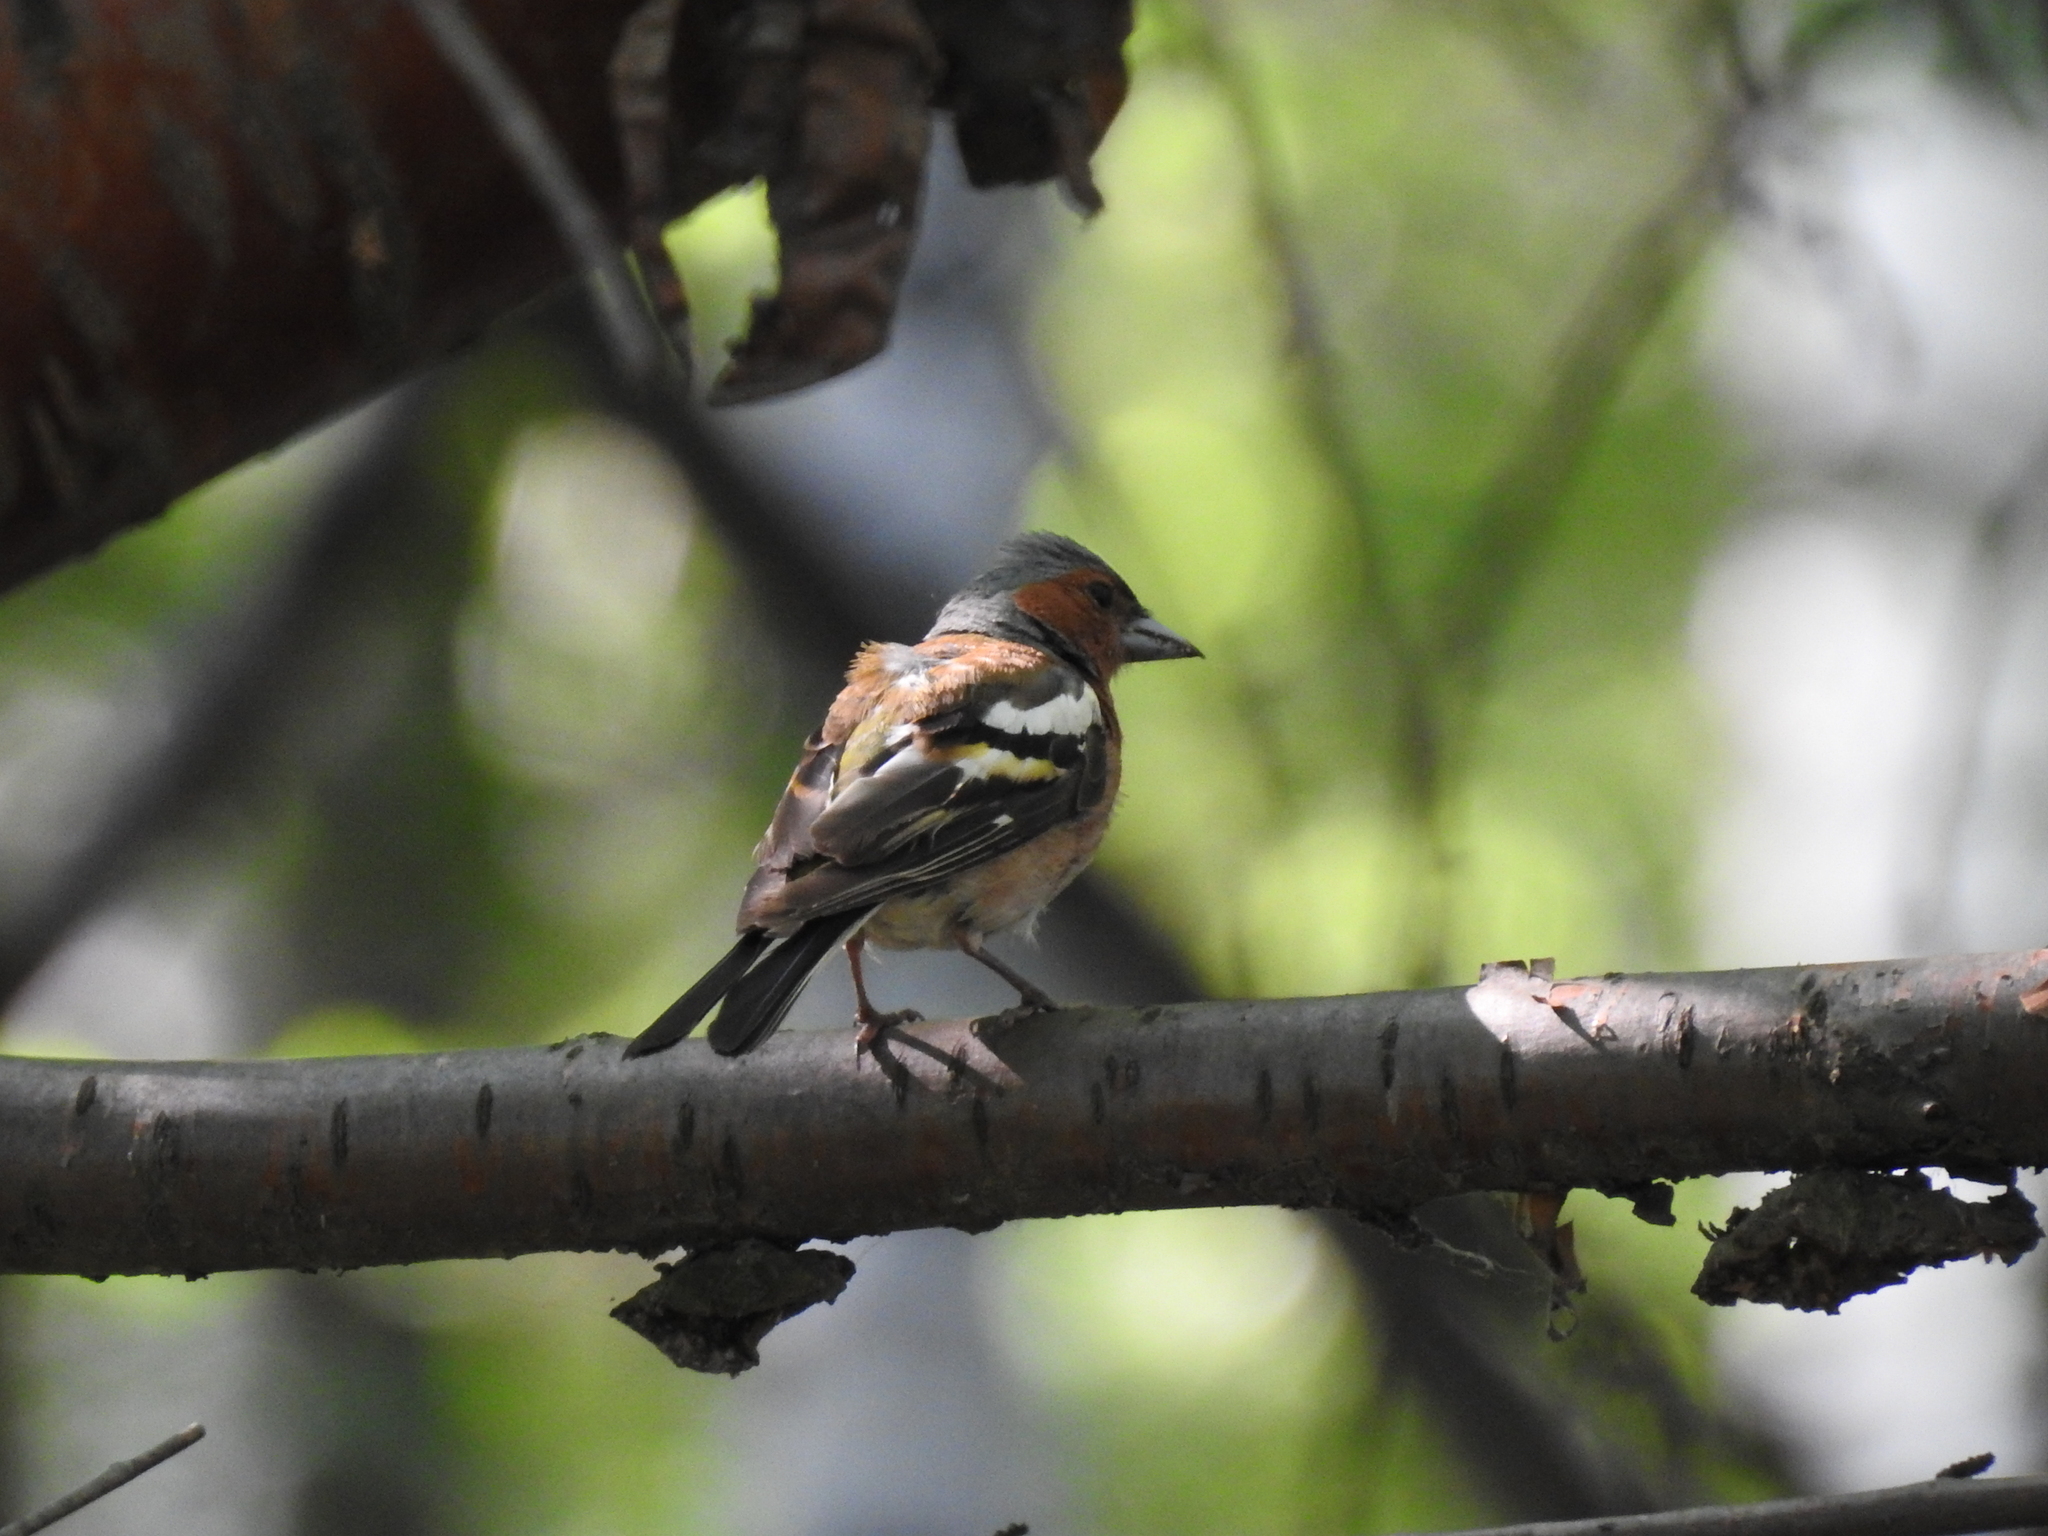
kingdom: Animalia
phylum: Chordata
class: Aves
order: Passeriformes
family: Fringillidae
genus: Fringilla
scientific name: Fringilla coelebs
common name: Common chaffinch
